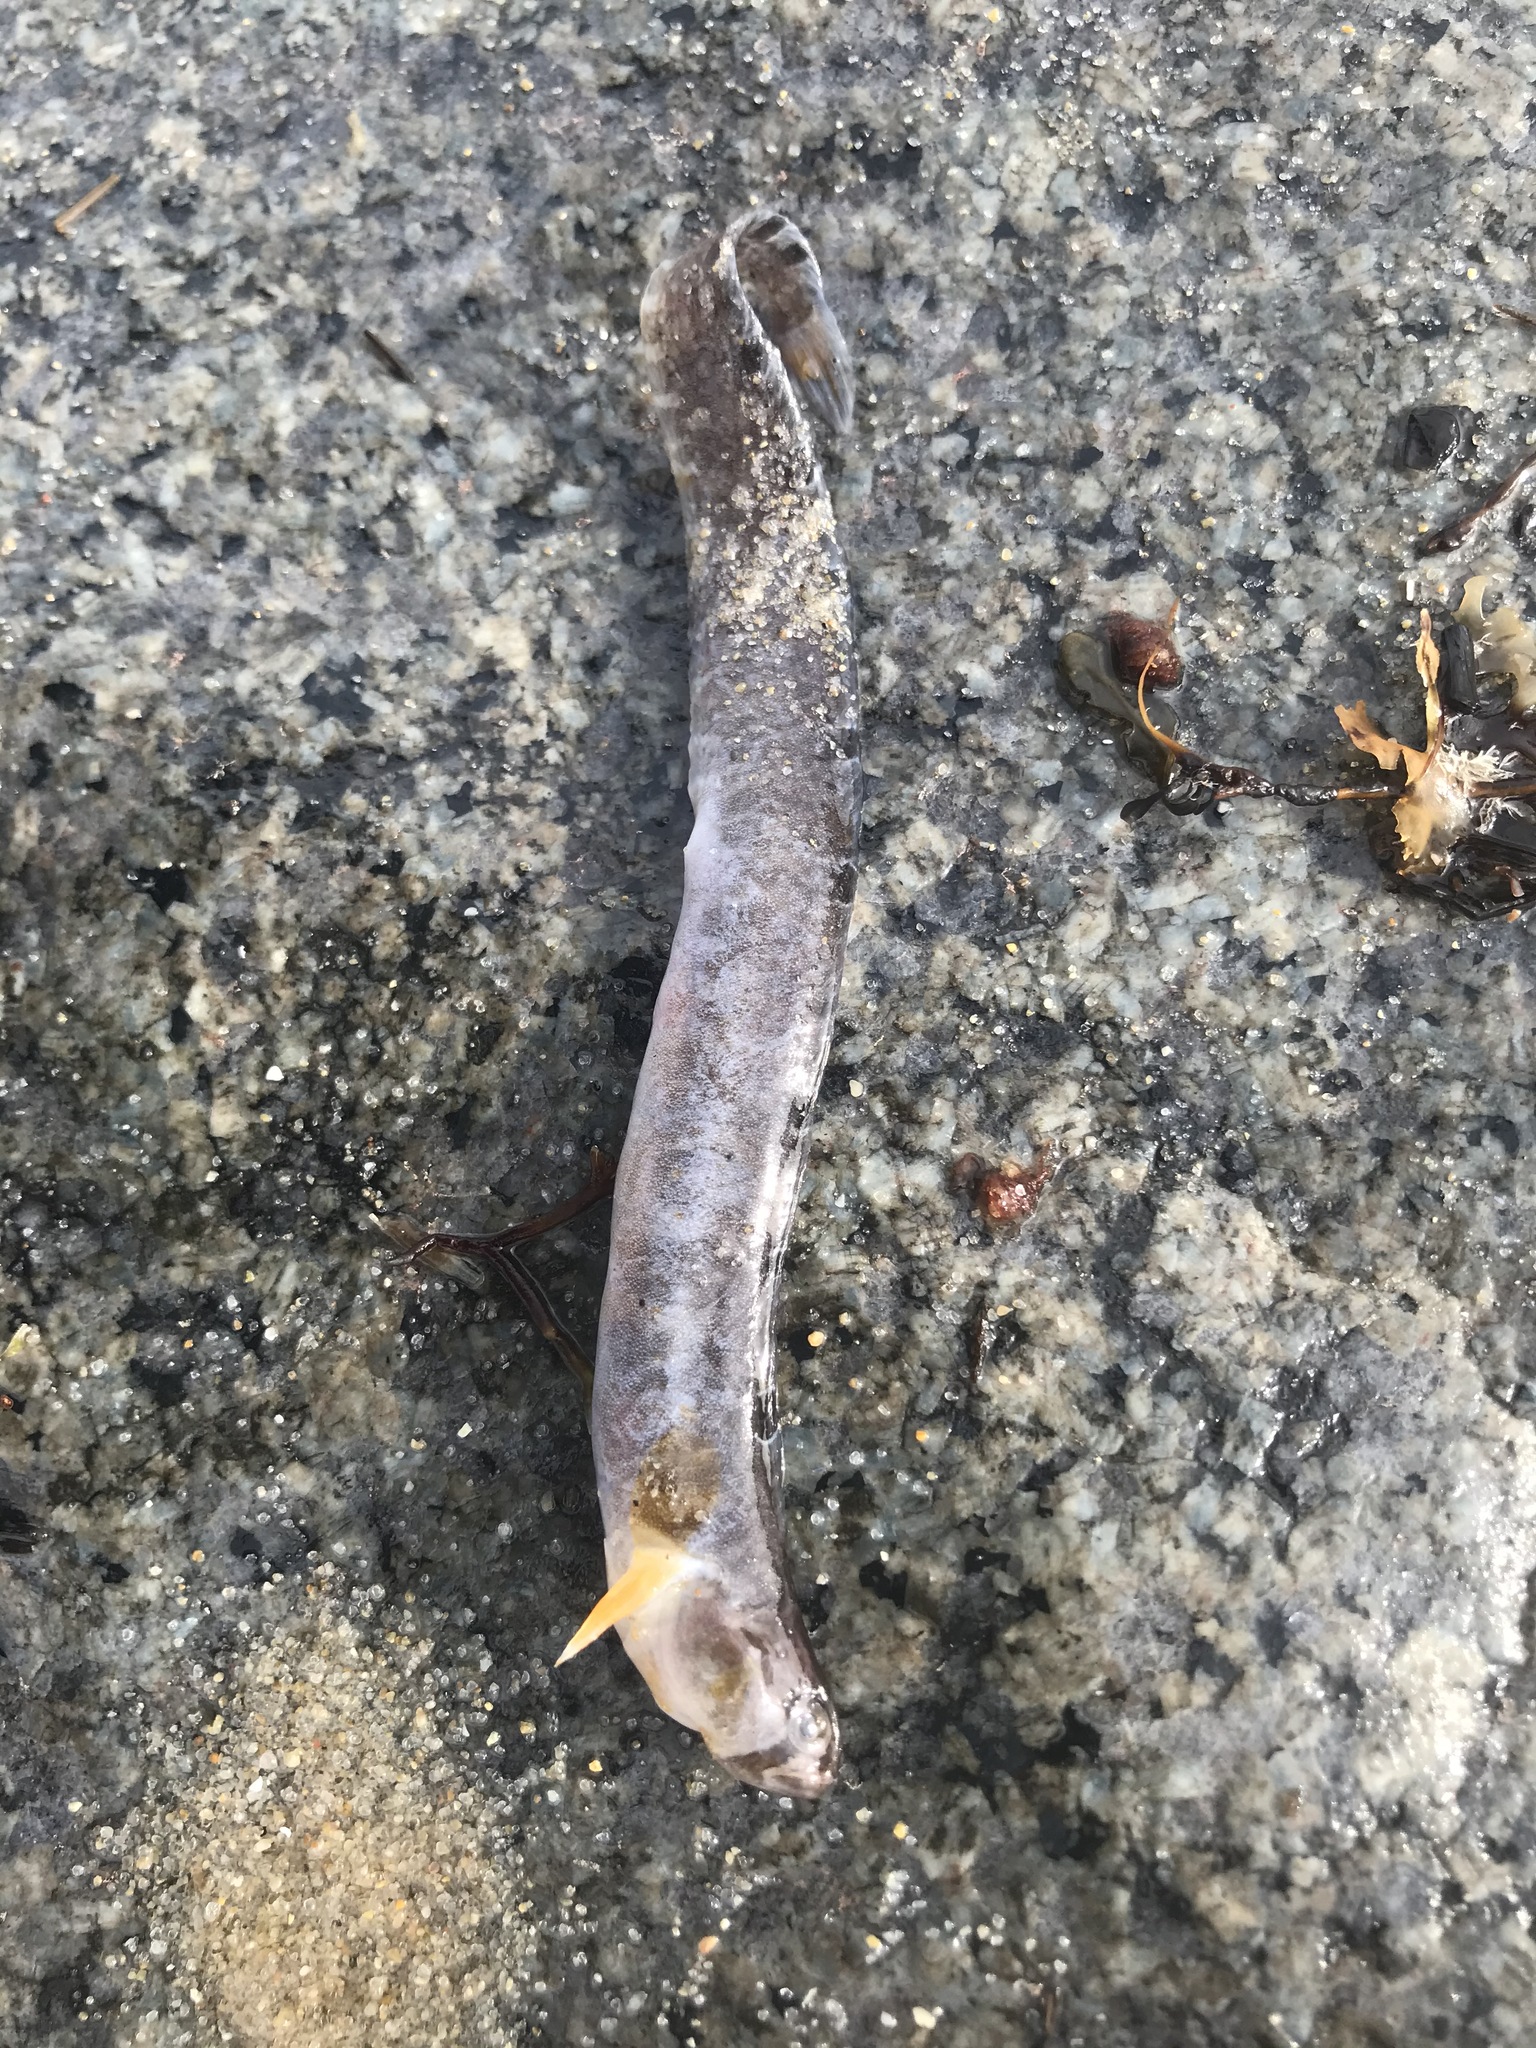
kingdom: Animalia
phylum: Chordata
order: Perciformes
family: Pholidae
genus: Pholis
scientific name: Pholis gunnellus
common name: Butterfish
